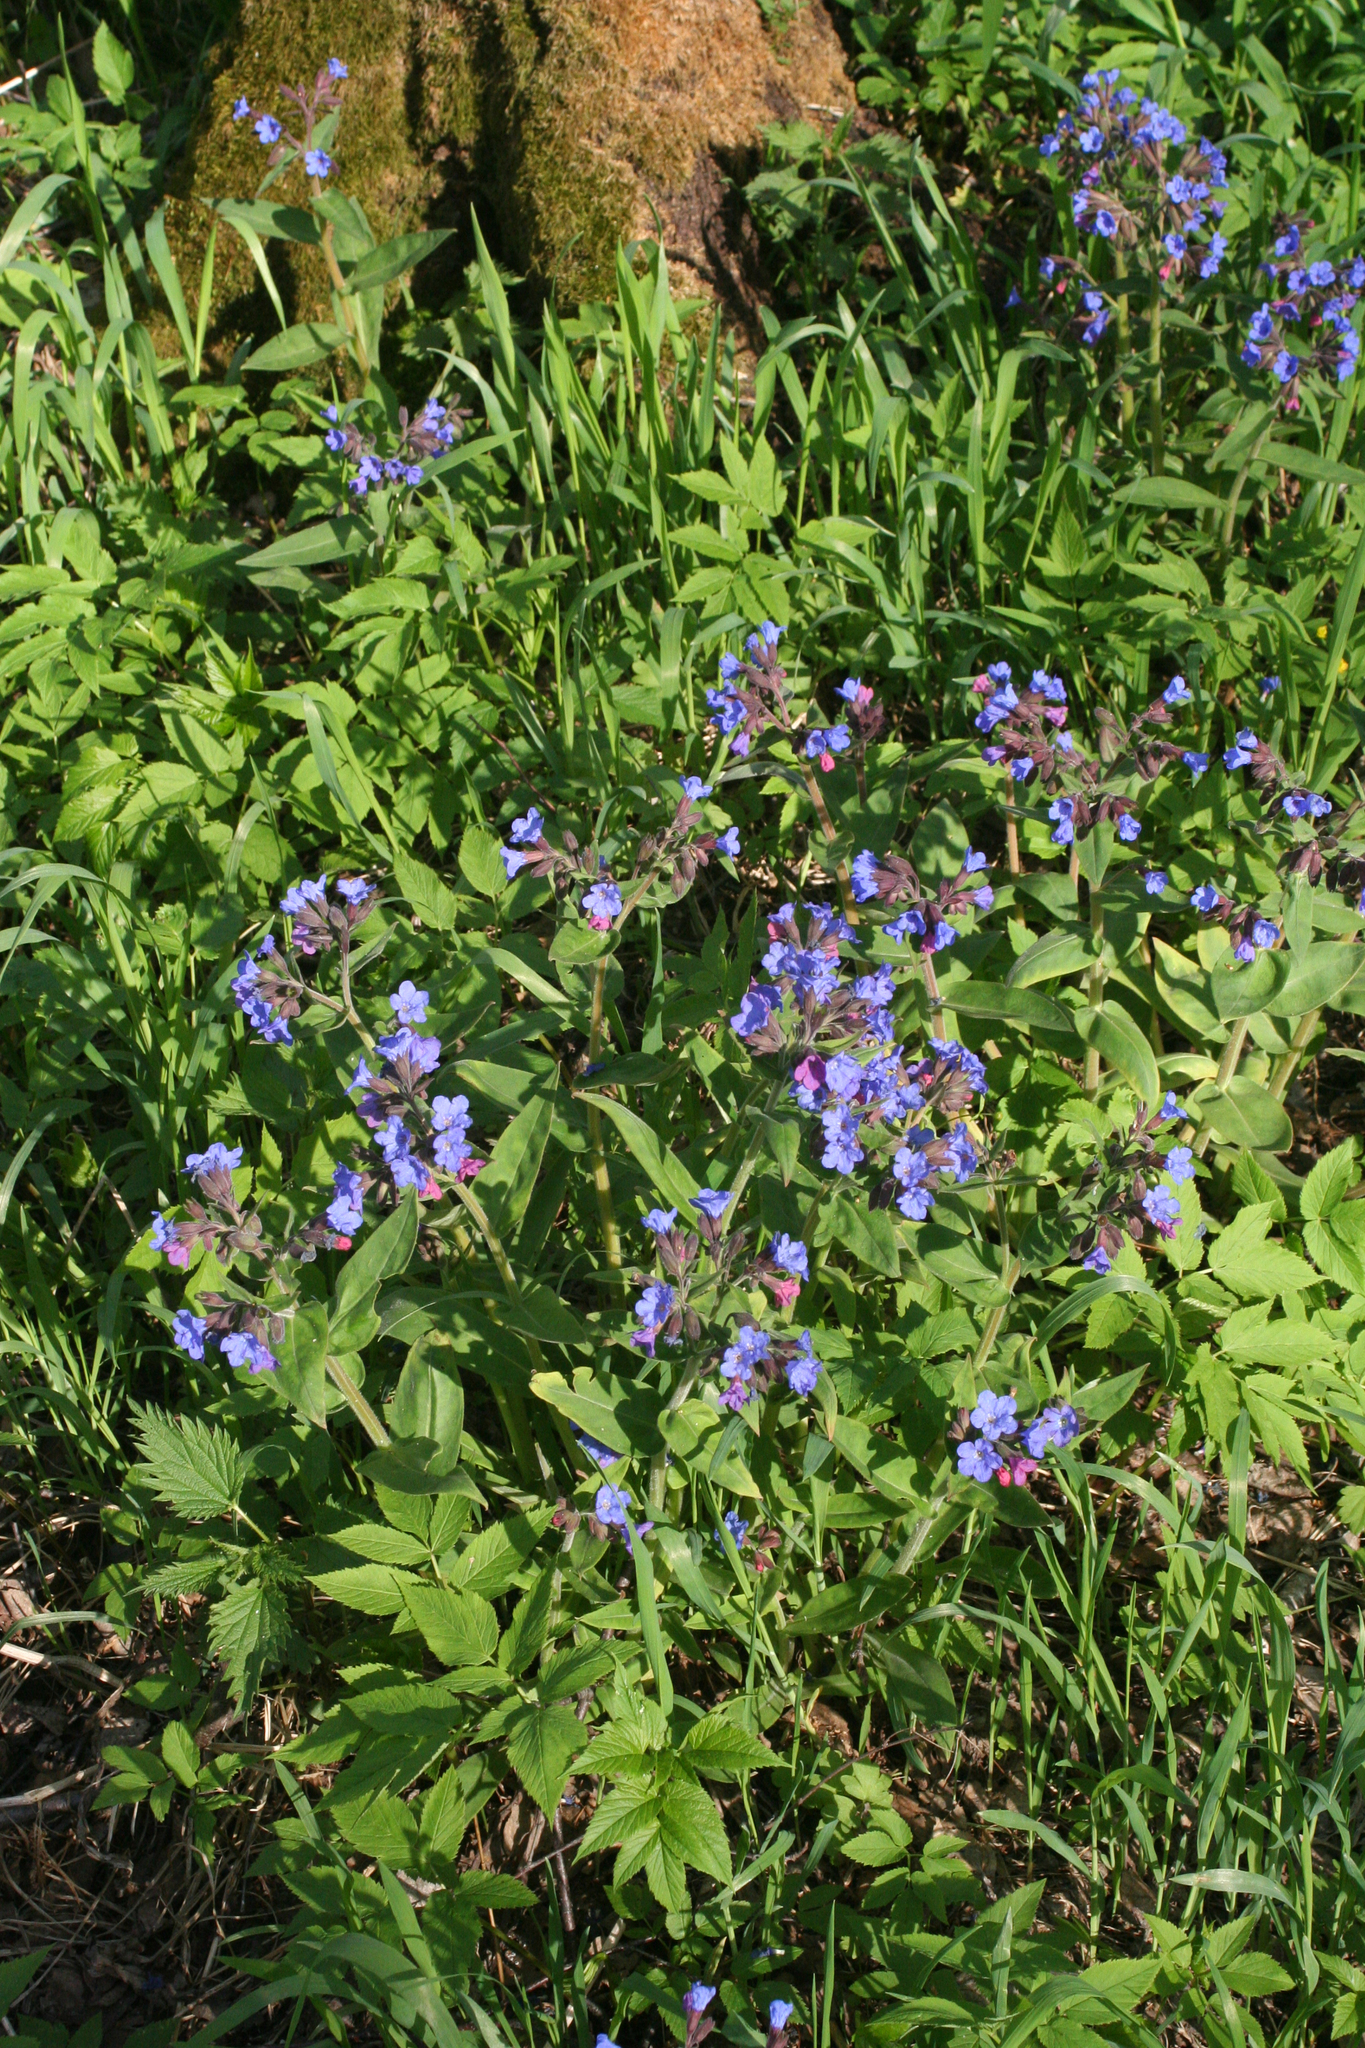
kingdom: Plantae
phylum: Tracheophyta
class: Magnoliopsida
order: Boraginales
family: Boraginaceae
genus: Pulmonaria
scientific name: Pulmonaria mollis
